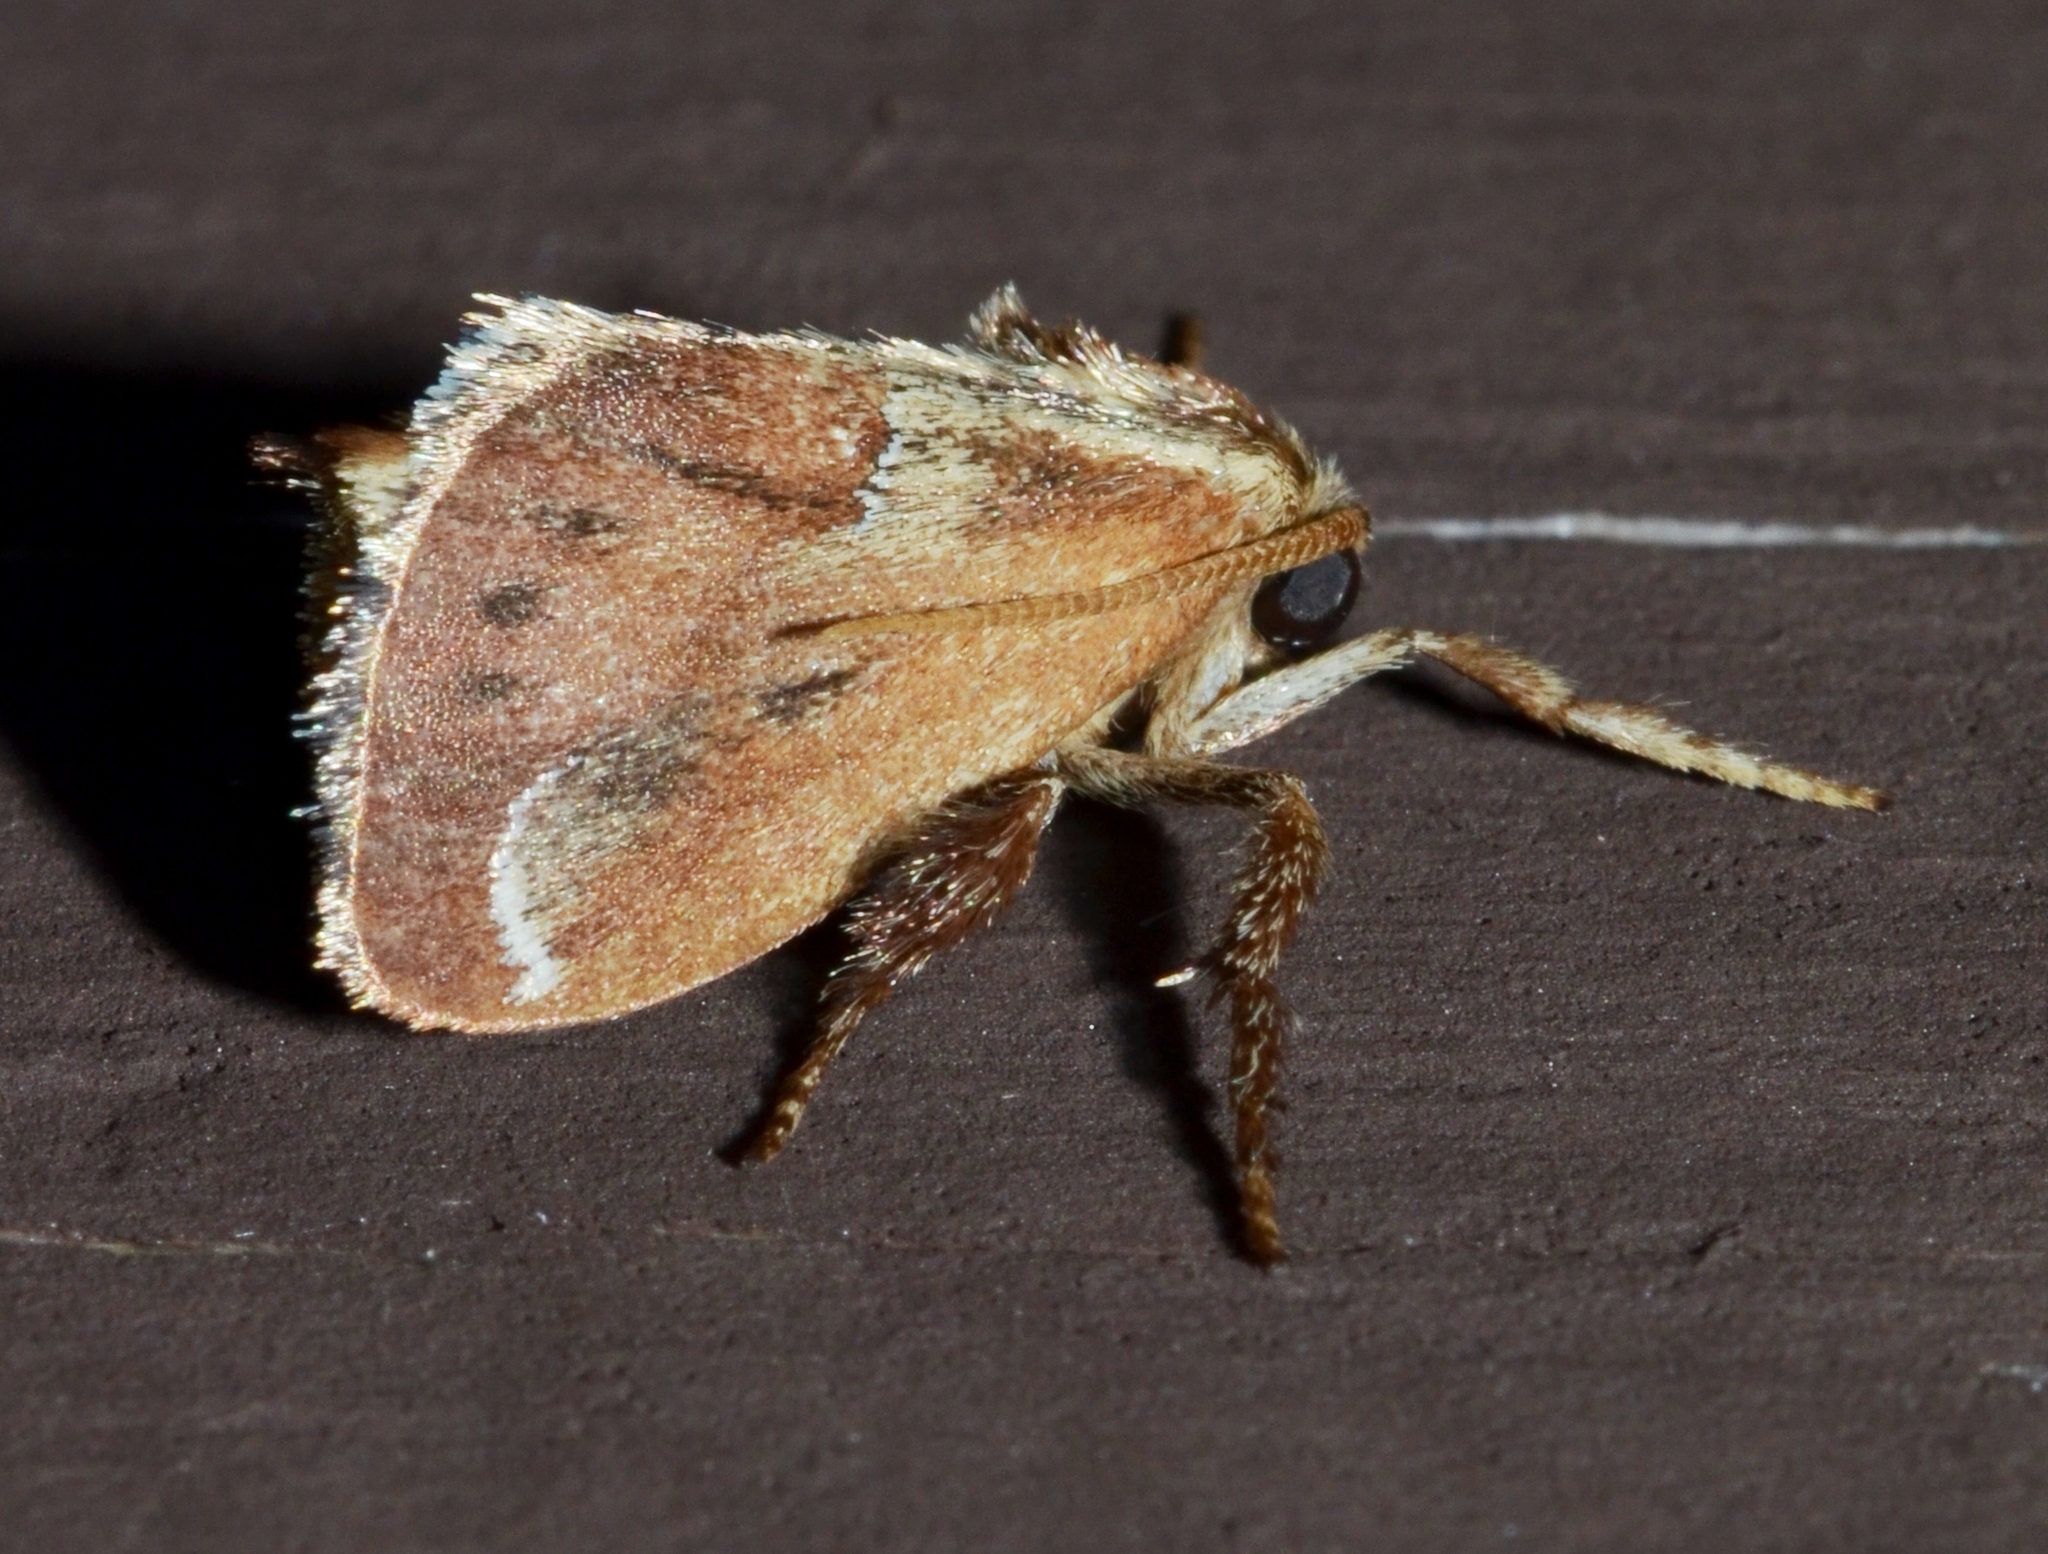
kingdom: Animalia
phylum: Arthropoda
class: Insecta
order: Lepidoptera
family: Limacodidae
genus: Adoneta
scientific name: Adoneta spinuloides
